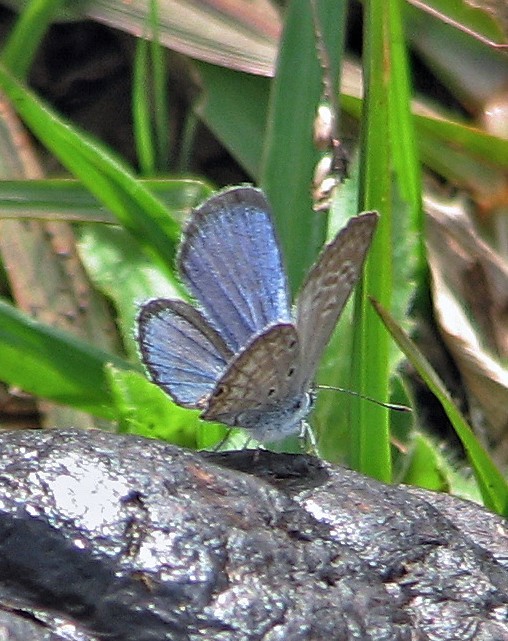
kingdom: Animalia
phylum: Arthropoda
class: Insecta
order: Lepidoptera
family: Lycaenidae
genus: Hemiargus
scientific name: Hemiargus hanno
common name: Common blue
